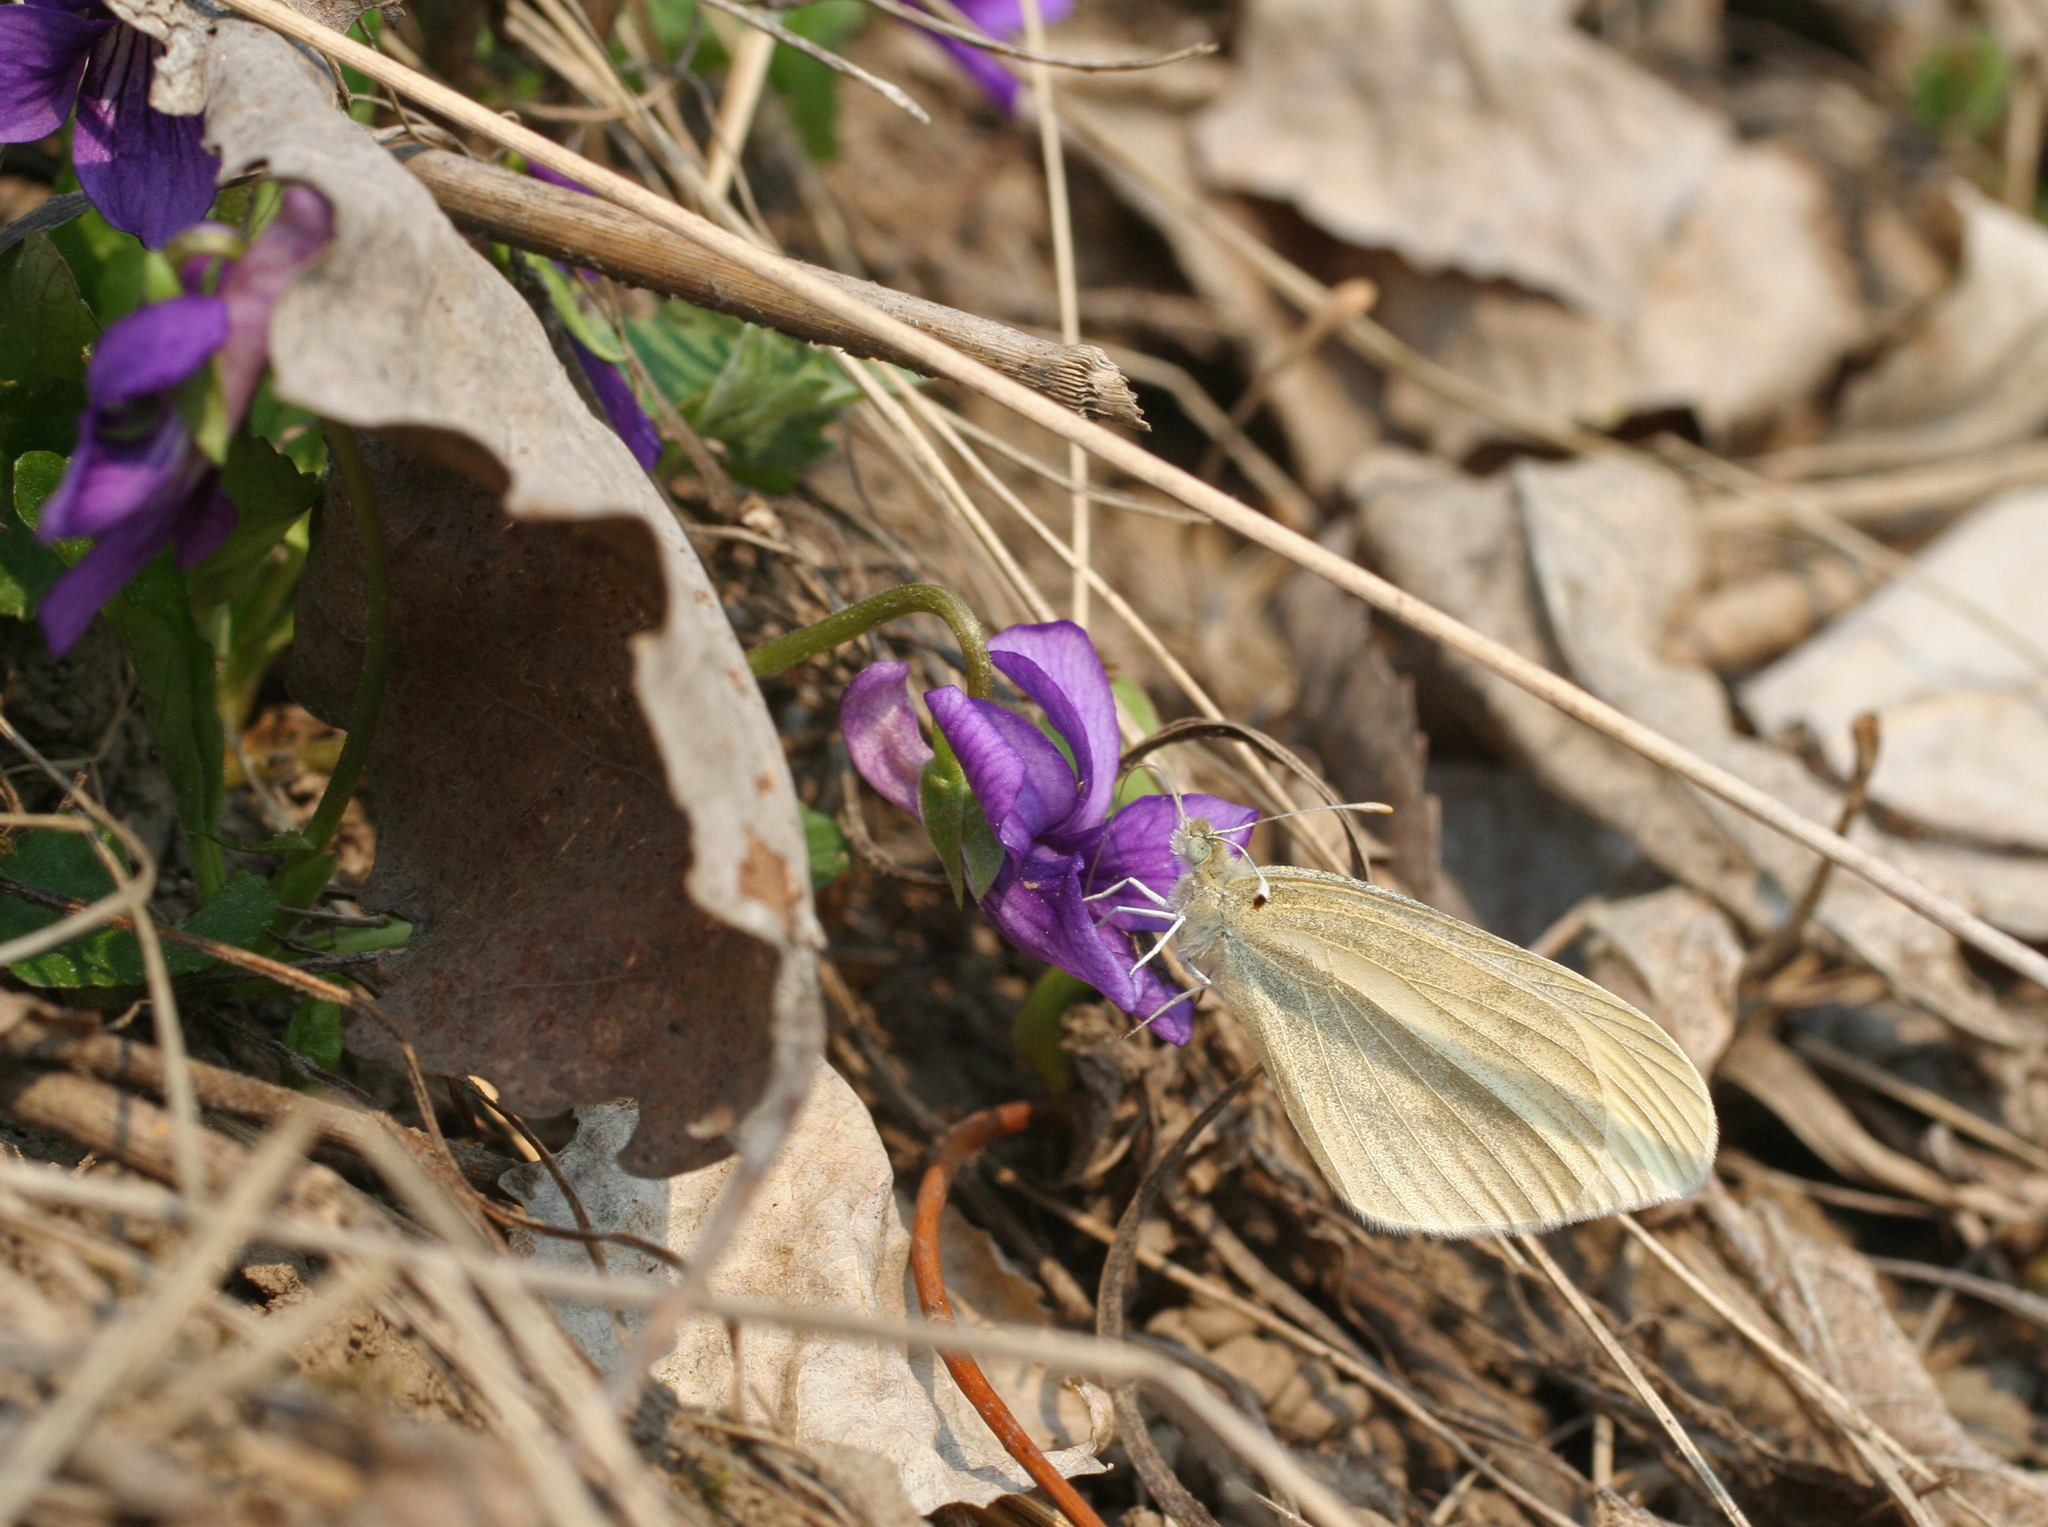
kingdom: Animalia
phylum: Arthropoda
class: Insecta
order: Lepidoptera
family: Pieridae
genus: Leptidea
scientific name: Leptidea amurensis
